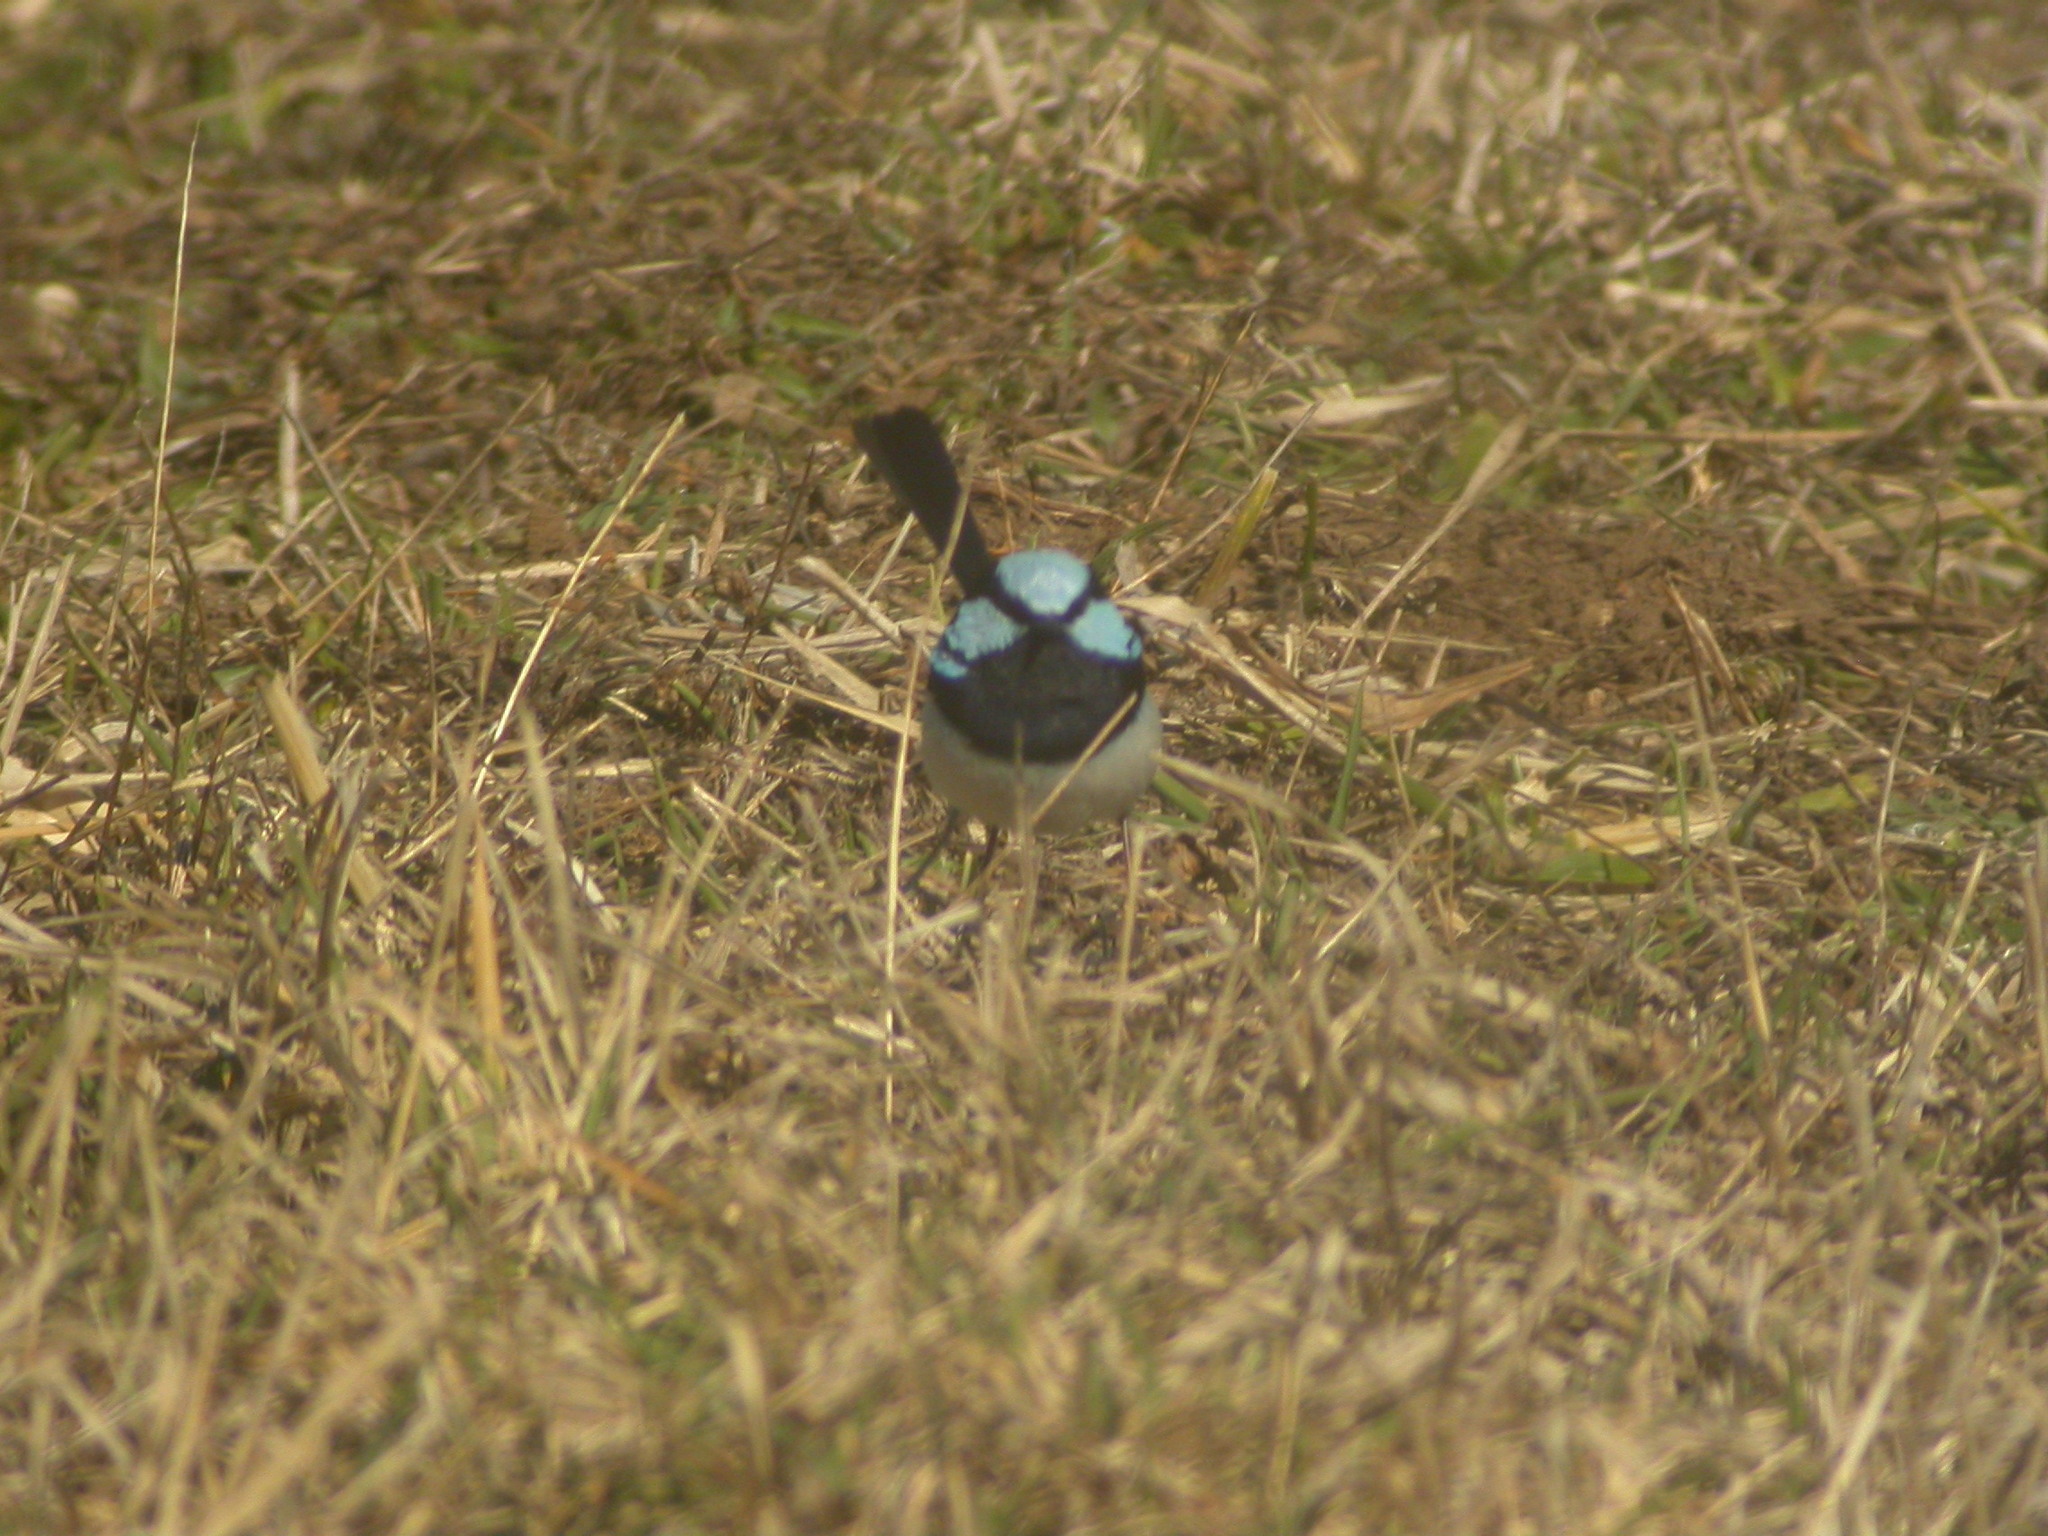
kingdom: Animalia
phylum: Chordata
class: Aves
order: Passeriformes
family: Maluridae
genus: Malurus
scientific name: Malurus cyaneus
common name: Superb fairywren
